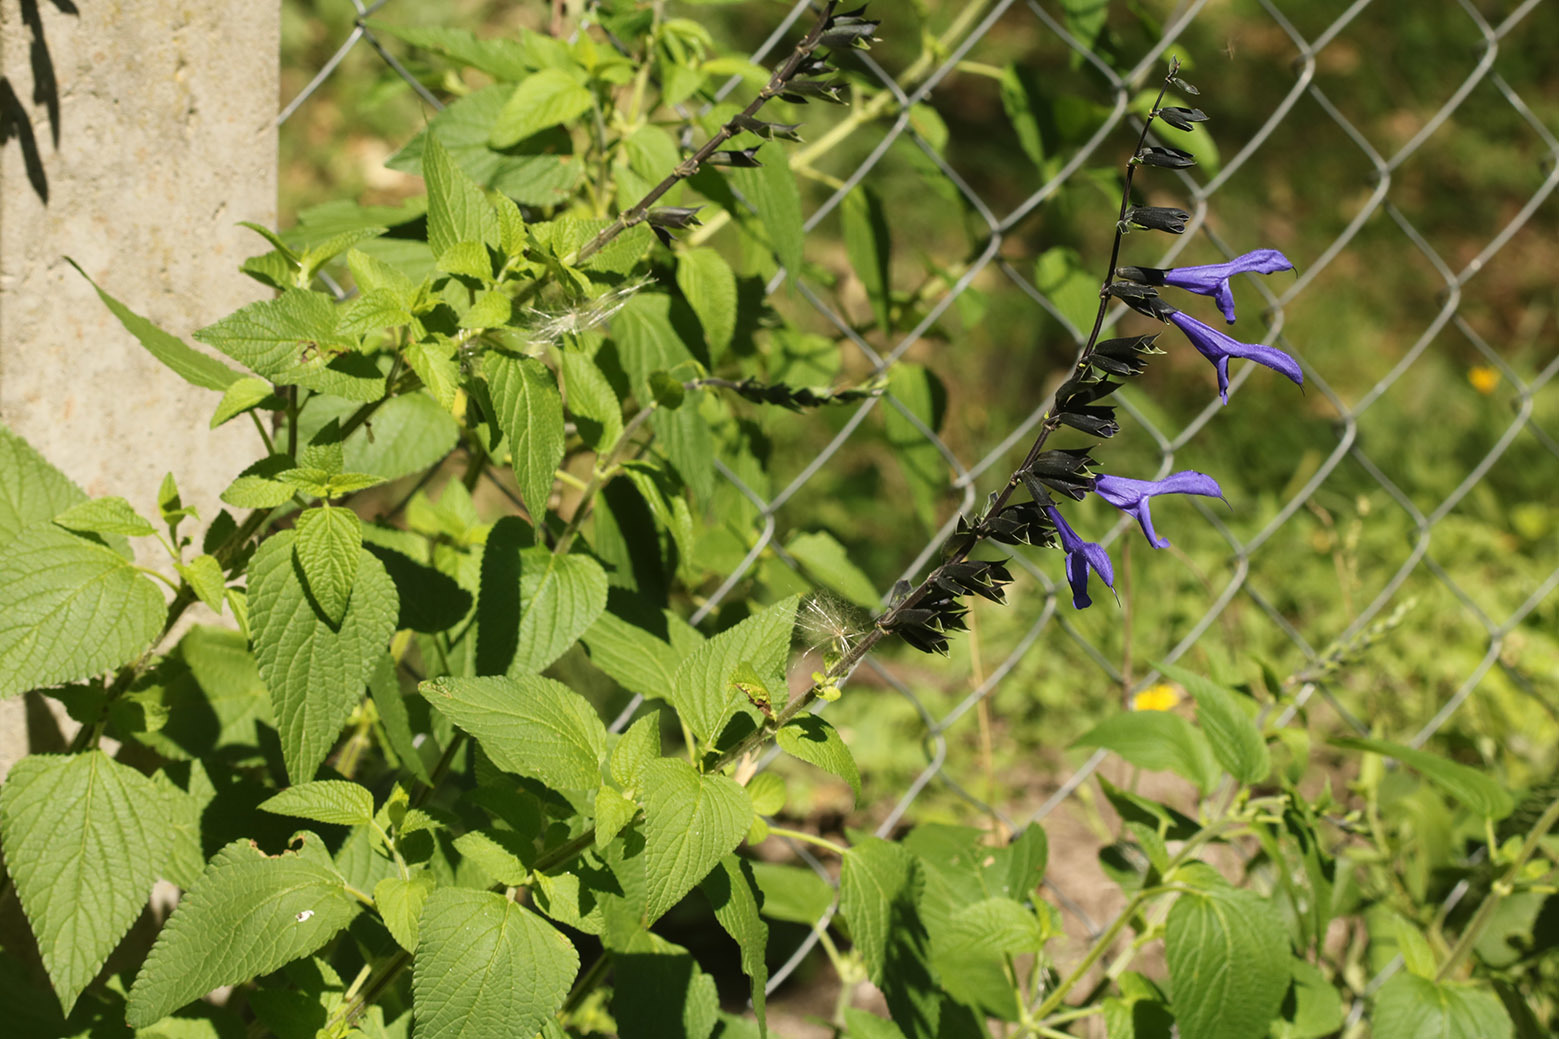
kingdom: Plantae
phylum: Tracheophyta
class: Magnoliopsida
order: Lamiales
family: Lamiaceae
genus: Salvia
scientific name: Salvia guaranitica
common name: Anise-scented sage
